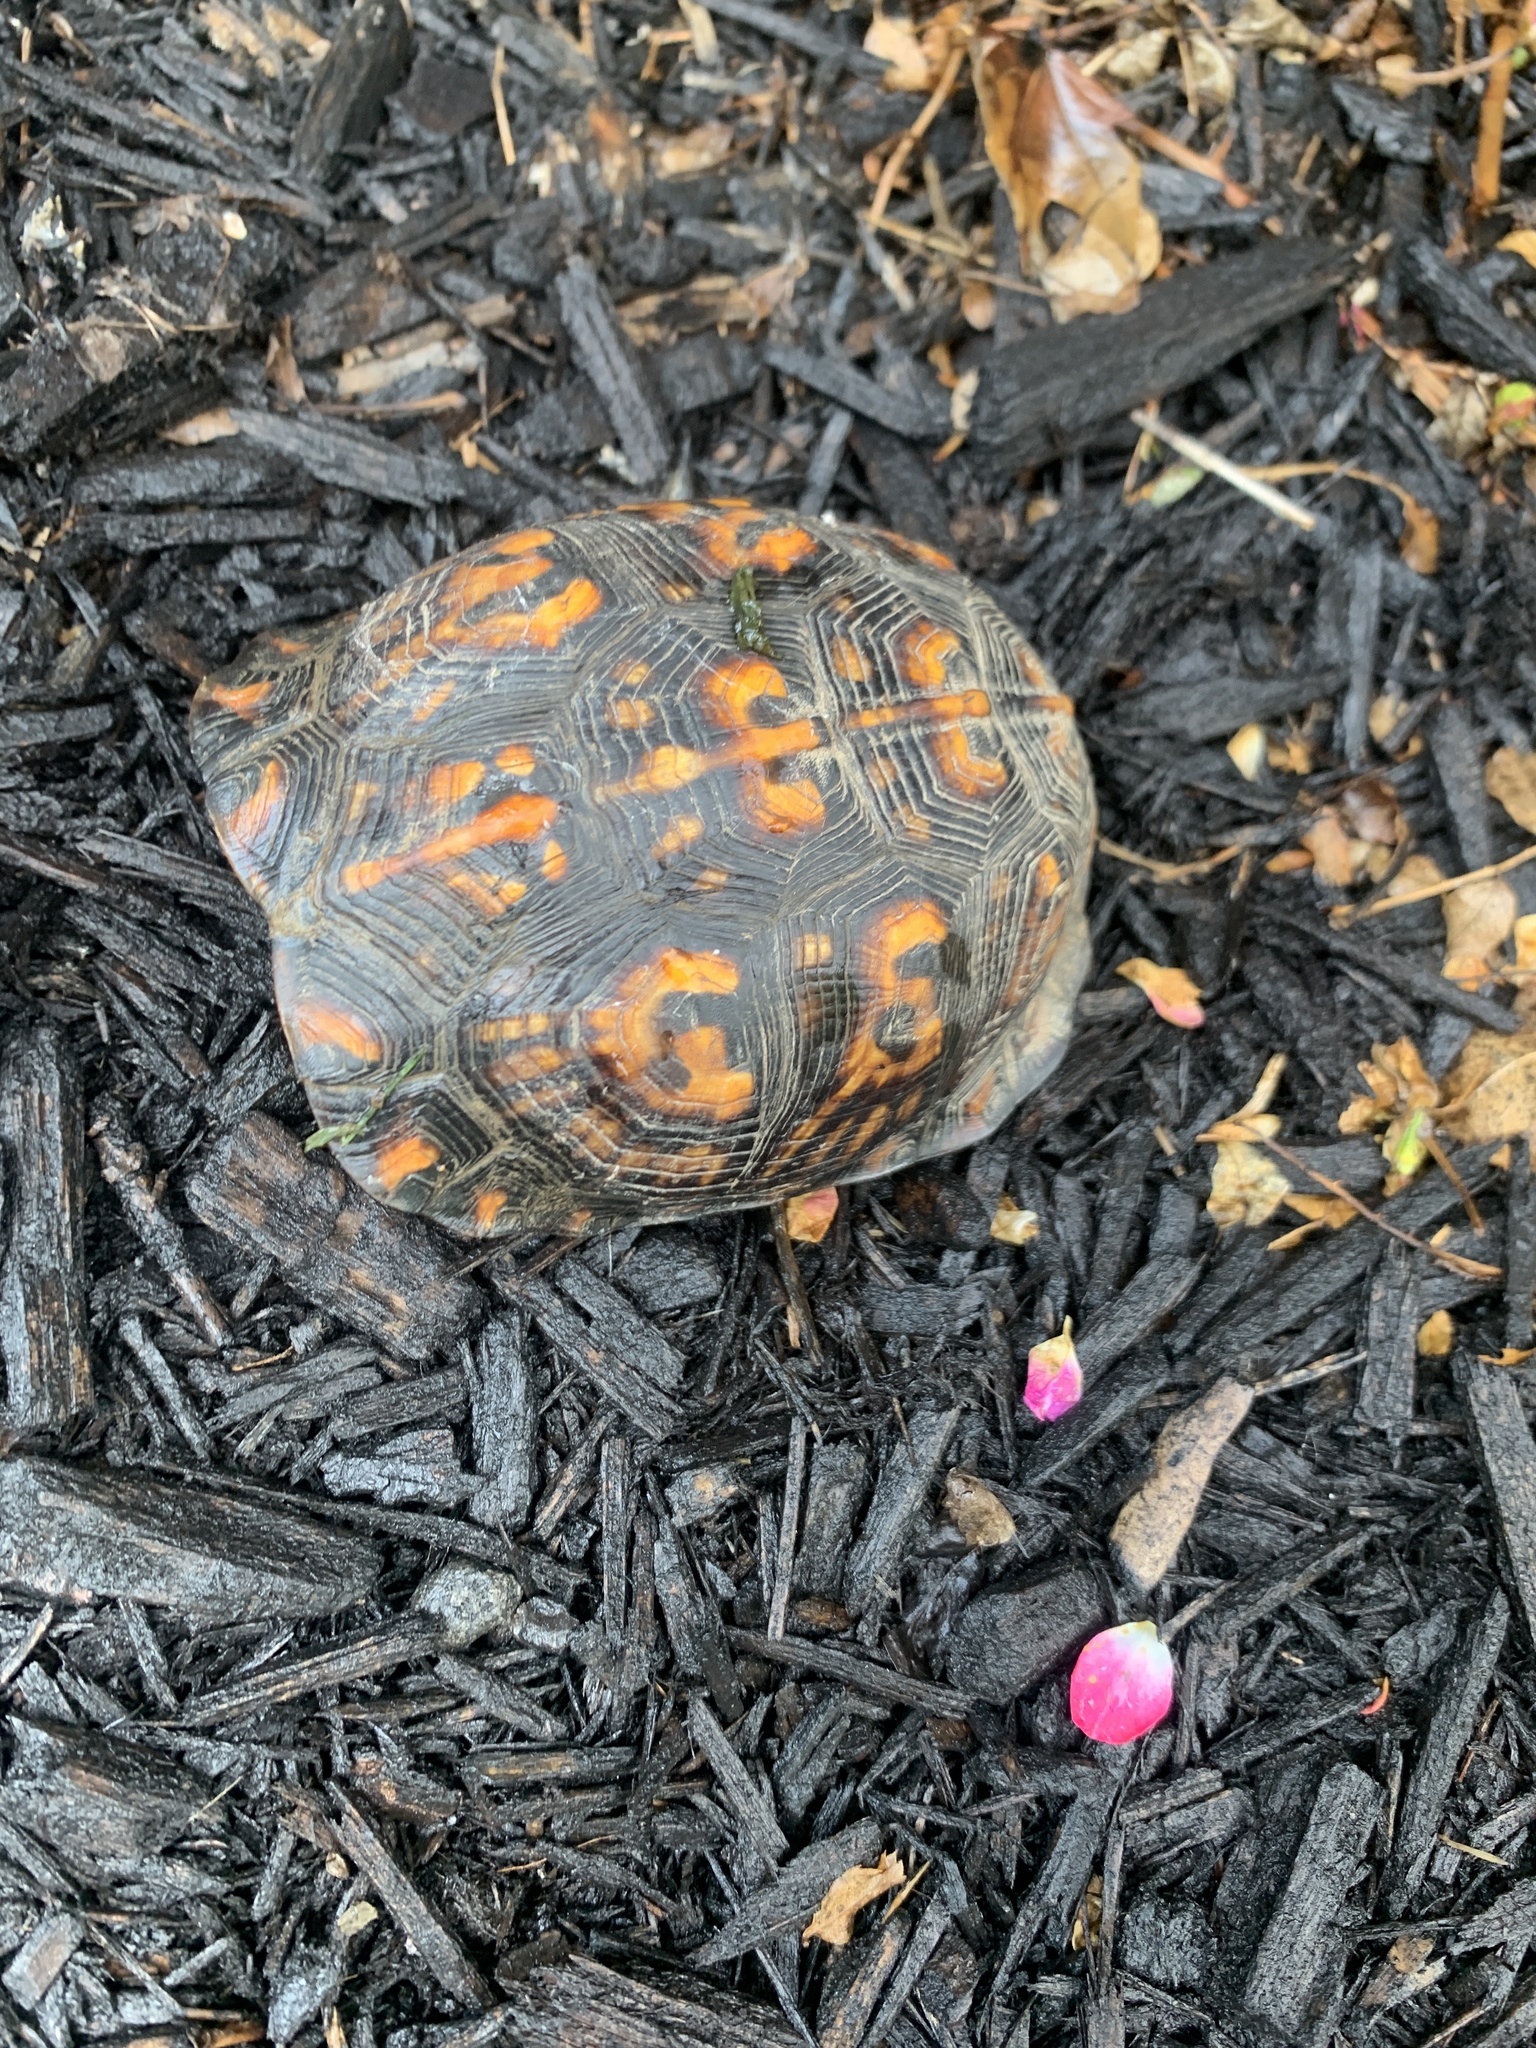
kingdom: Animalia
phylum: Chordata
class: Testudines
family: Emydidae
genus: Terrapene
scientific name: Terrapene carolina
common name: Common box turtle
